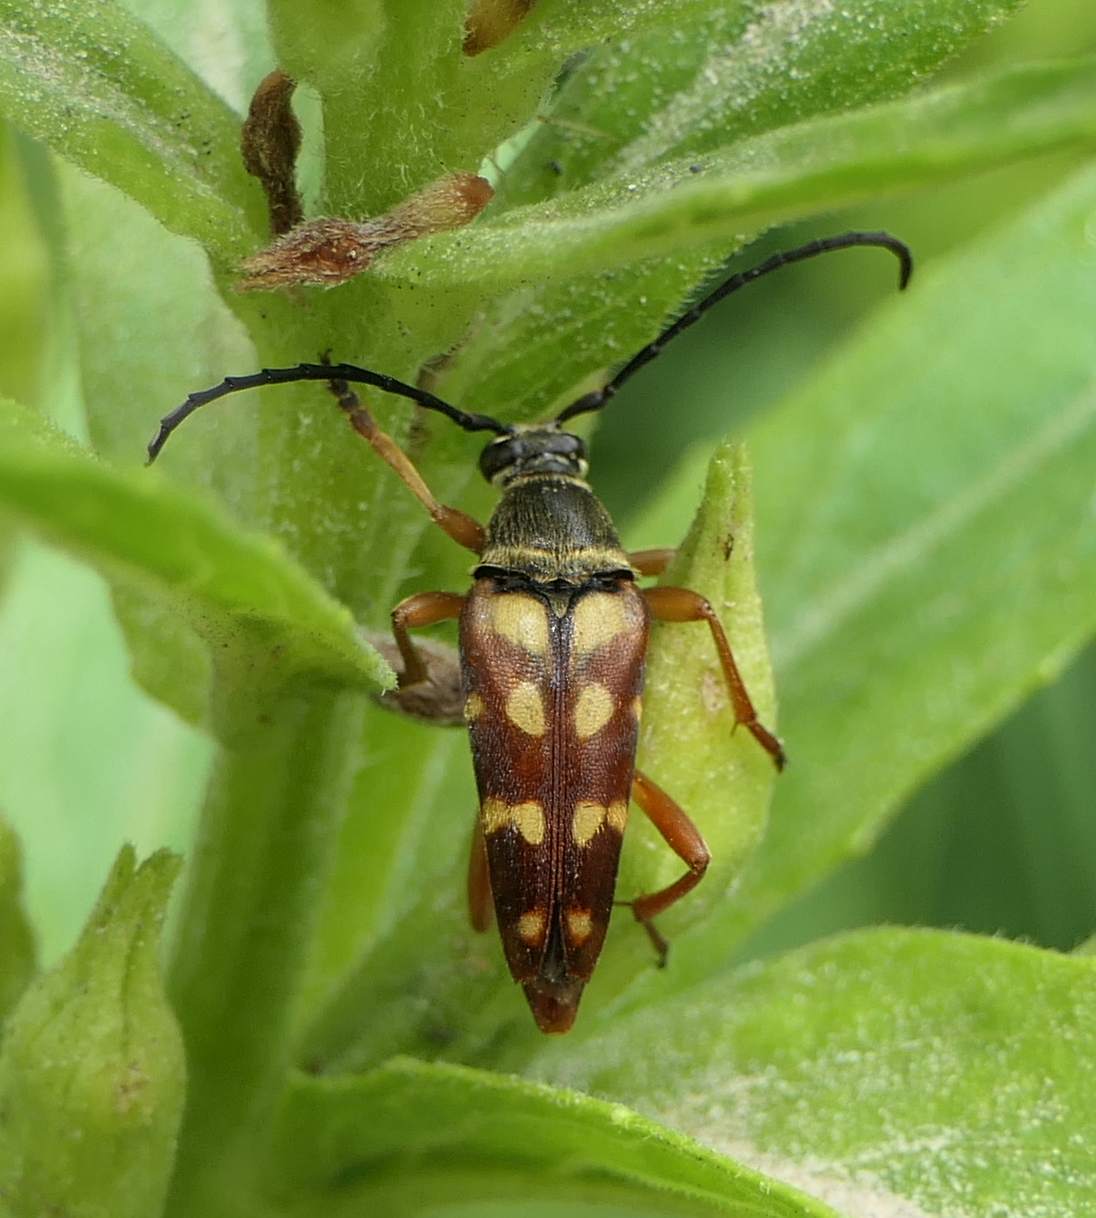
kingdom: Animalia
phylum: Arthropoda
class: Insecta
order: Coleoptera
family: Cerambycidae
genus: Typocerus
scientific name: Typocerus velutinus
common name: Banded longhorn beetle
